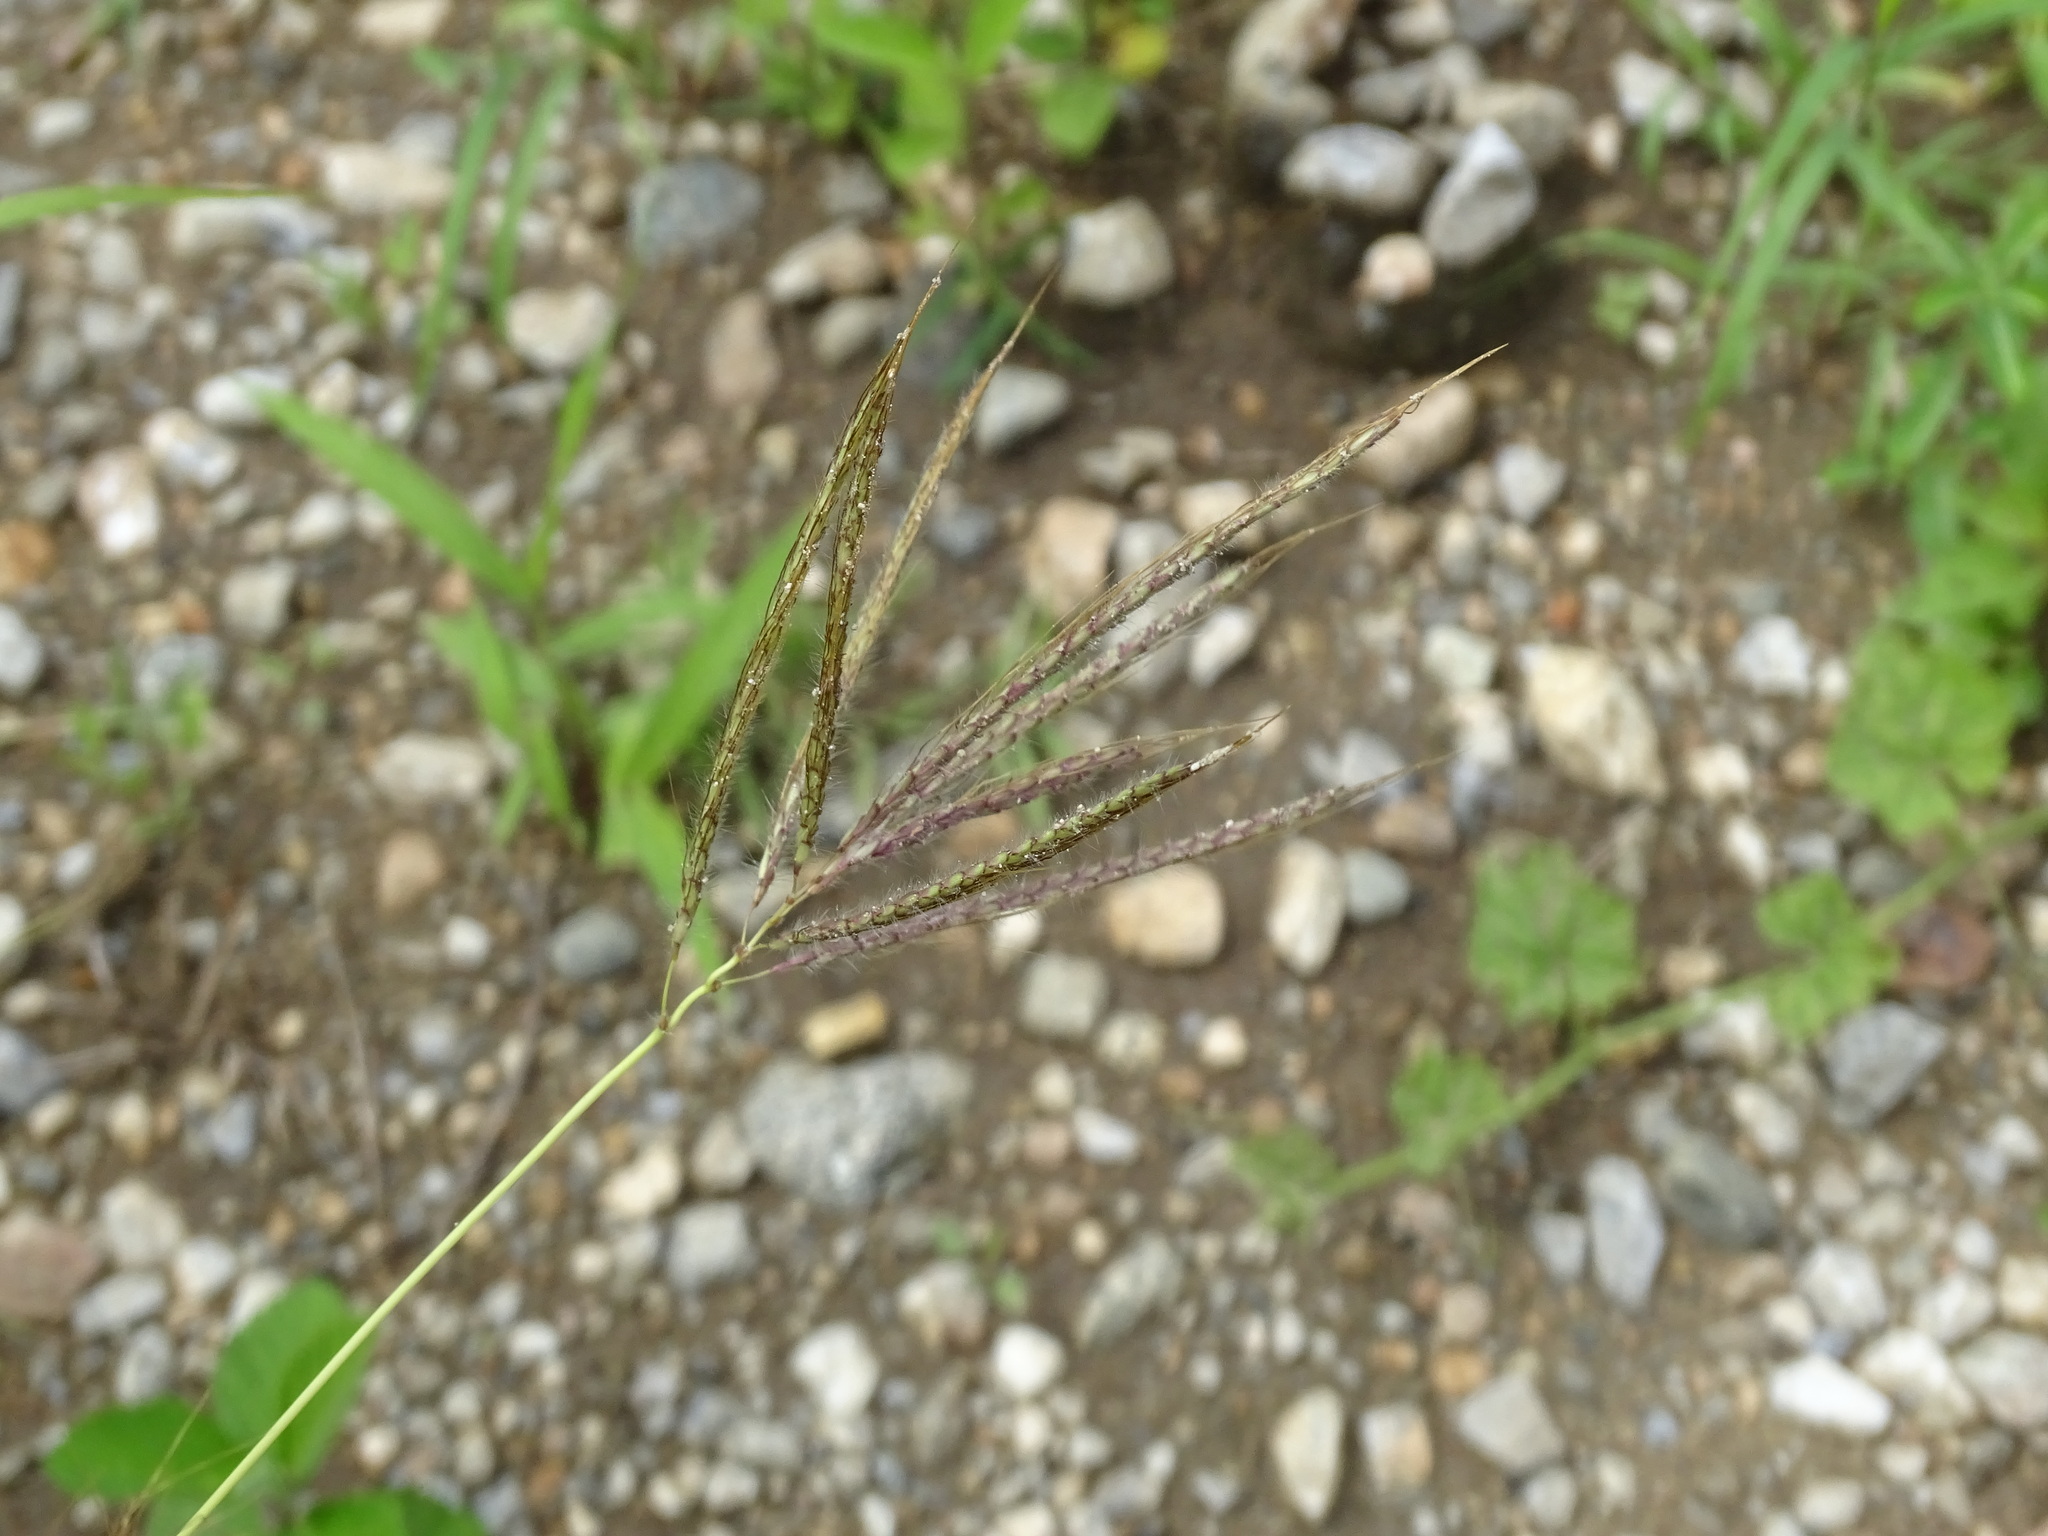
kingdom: Plantae
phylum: Tracheophyta
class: Liliopsida
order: Poales
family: Poaceae
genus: Dichanthium
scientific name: Dichanthium annulatum
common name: Kleberg's bluestem
